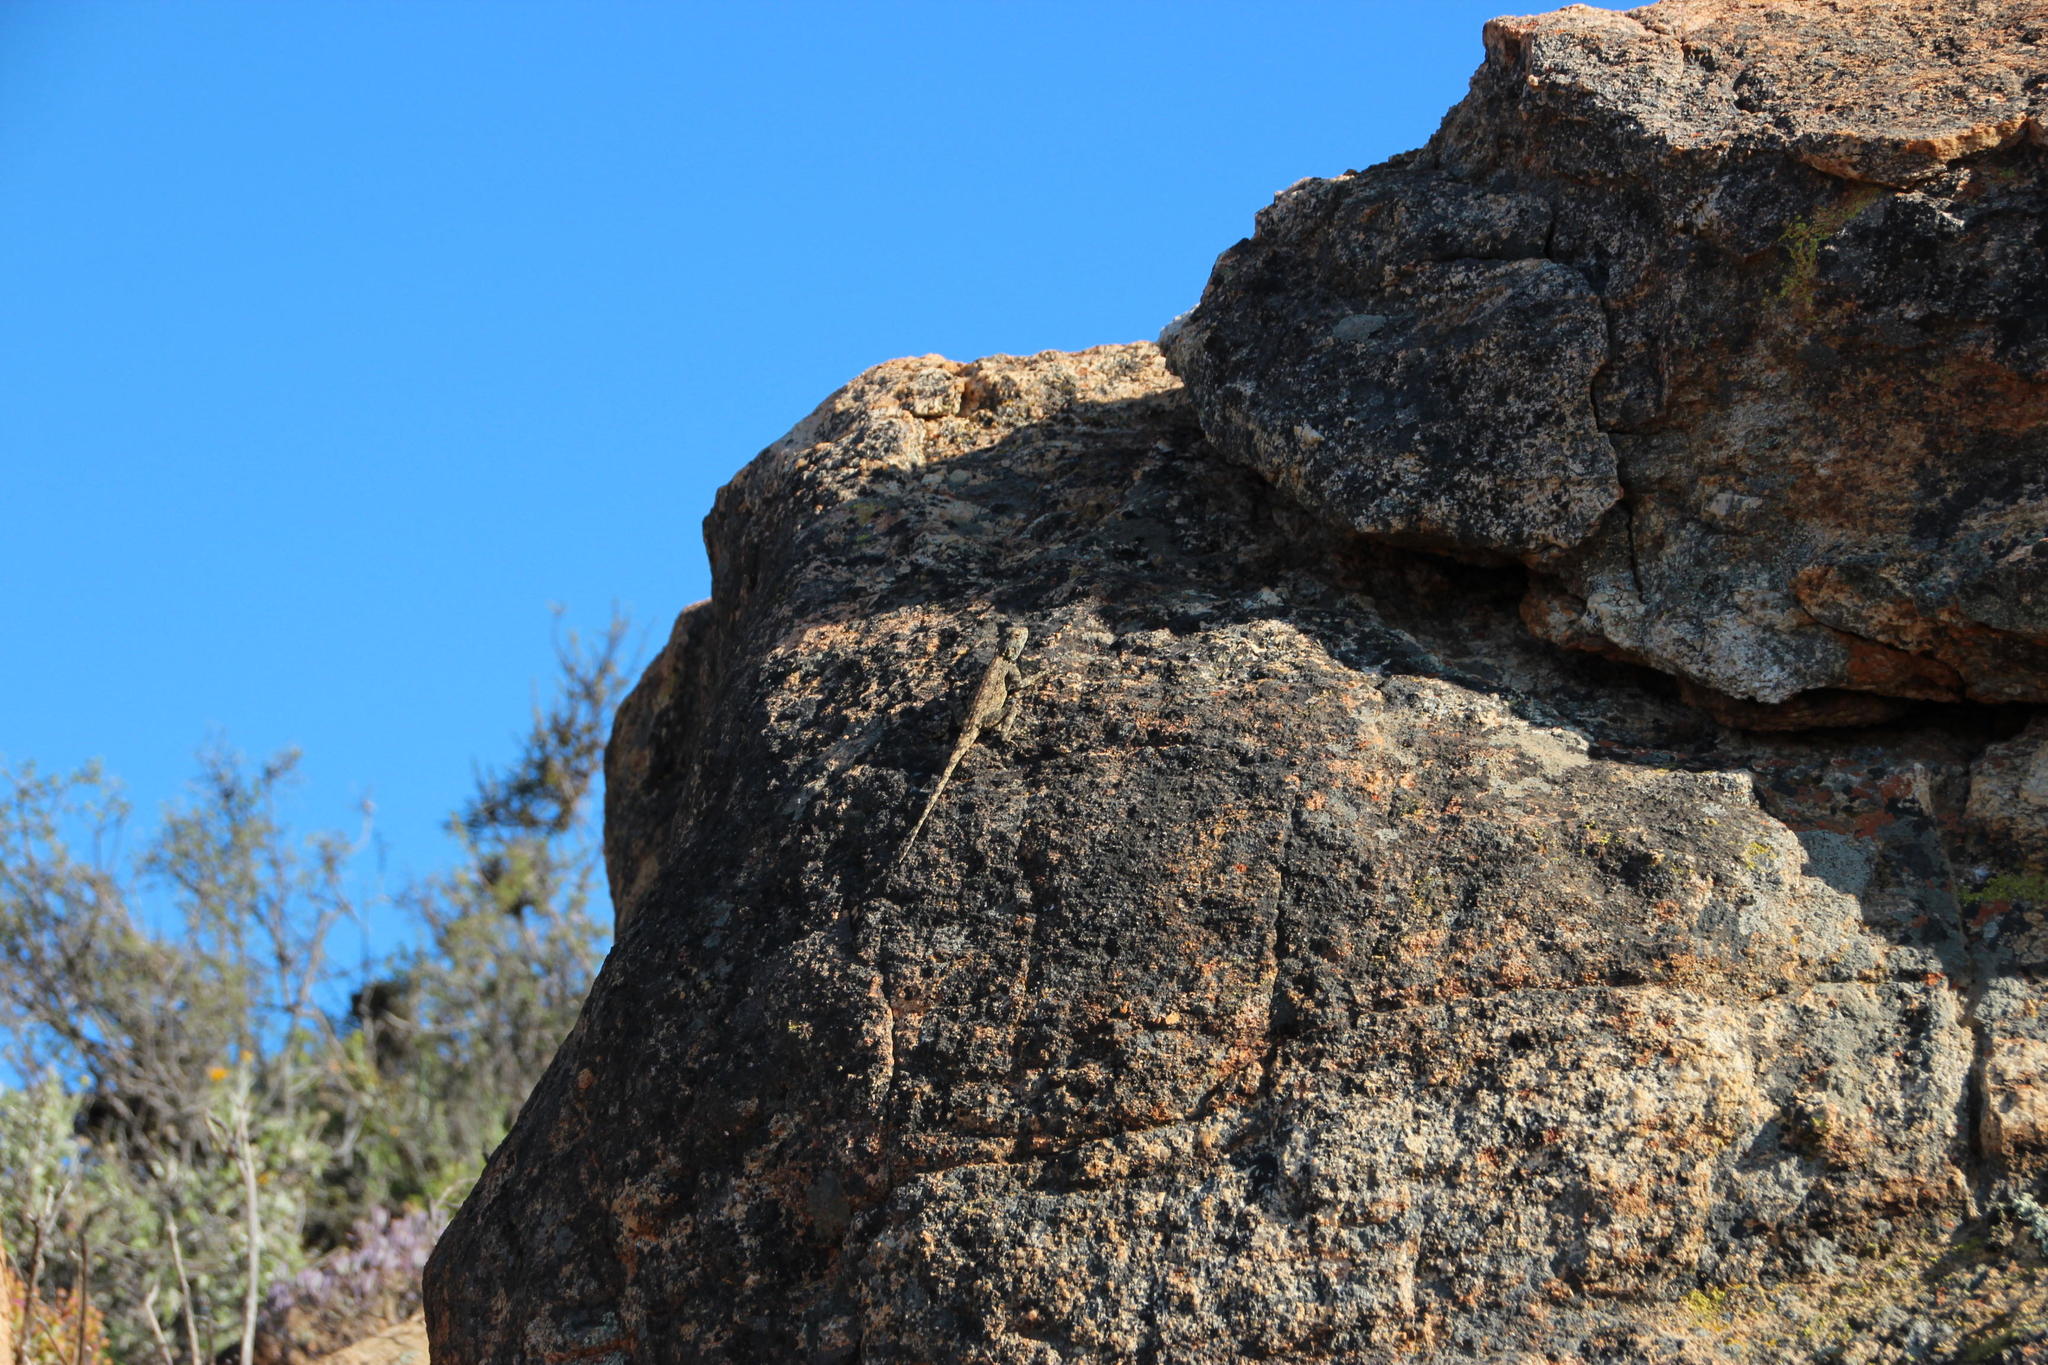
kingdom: Animalia
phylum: Chordata
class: Squamata
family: Agamidae
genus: Agama
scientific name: Agama atra
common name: Southern african rock agama
